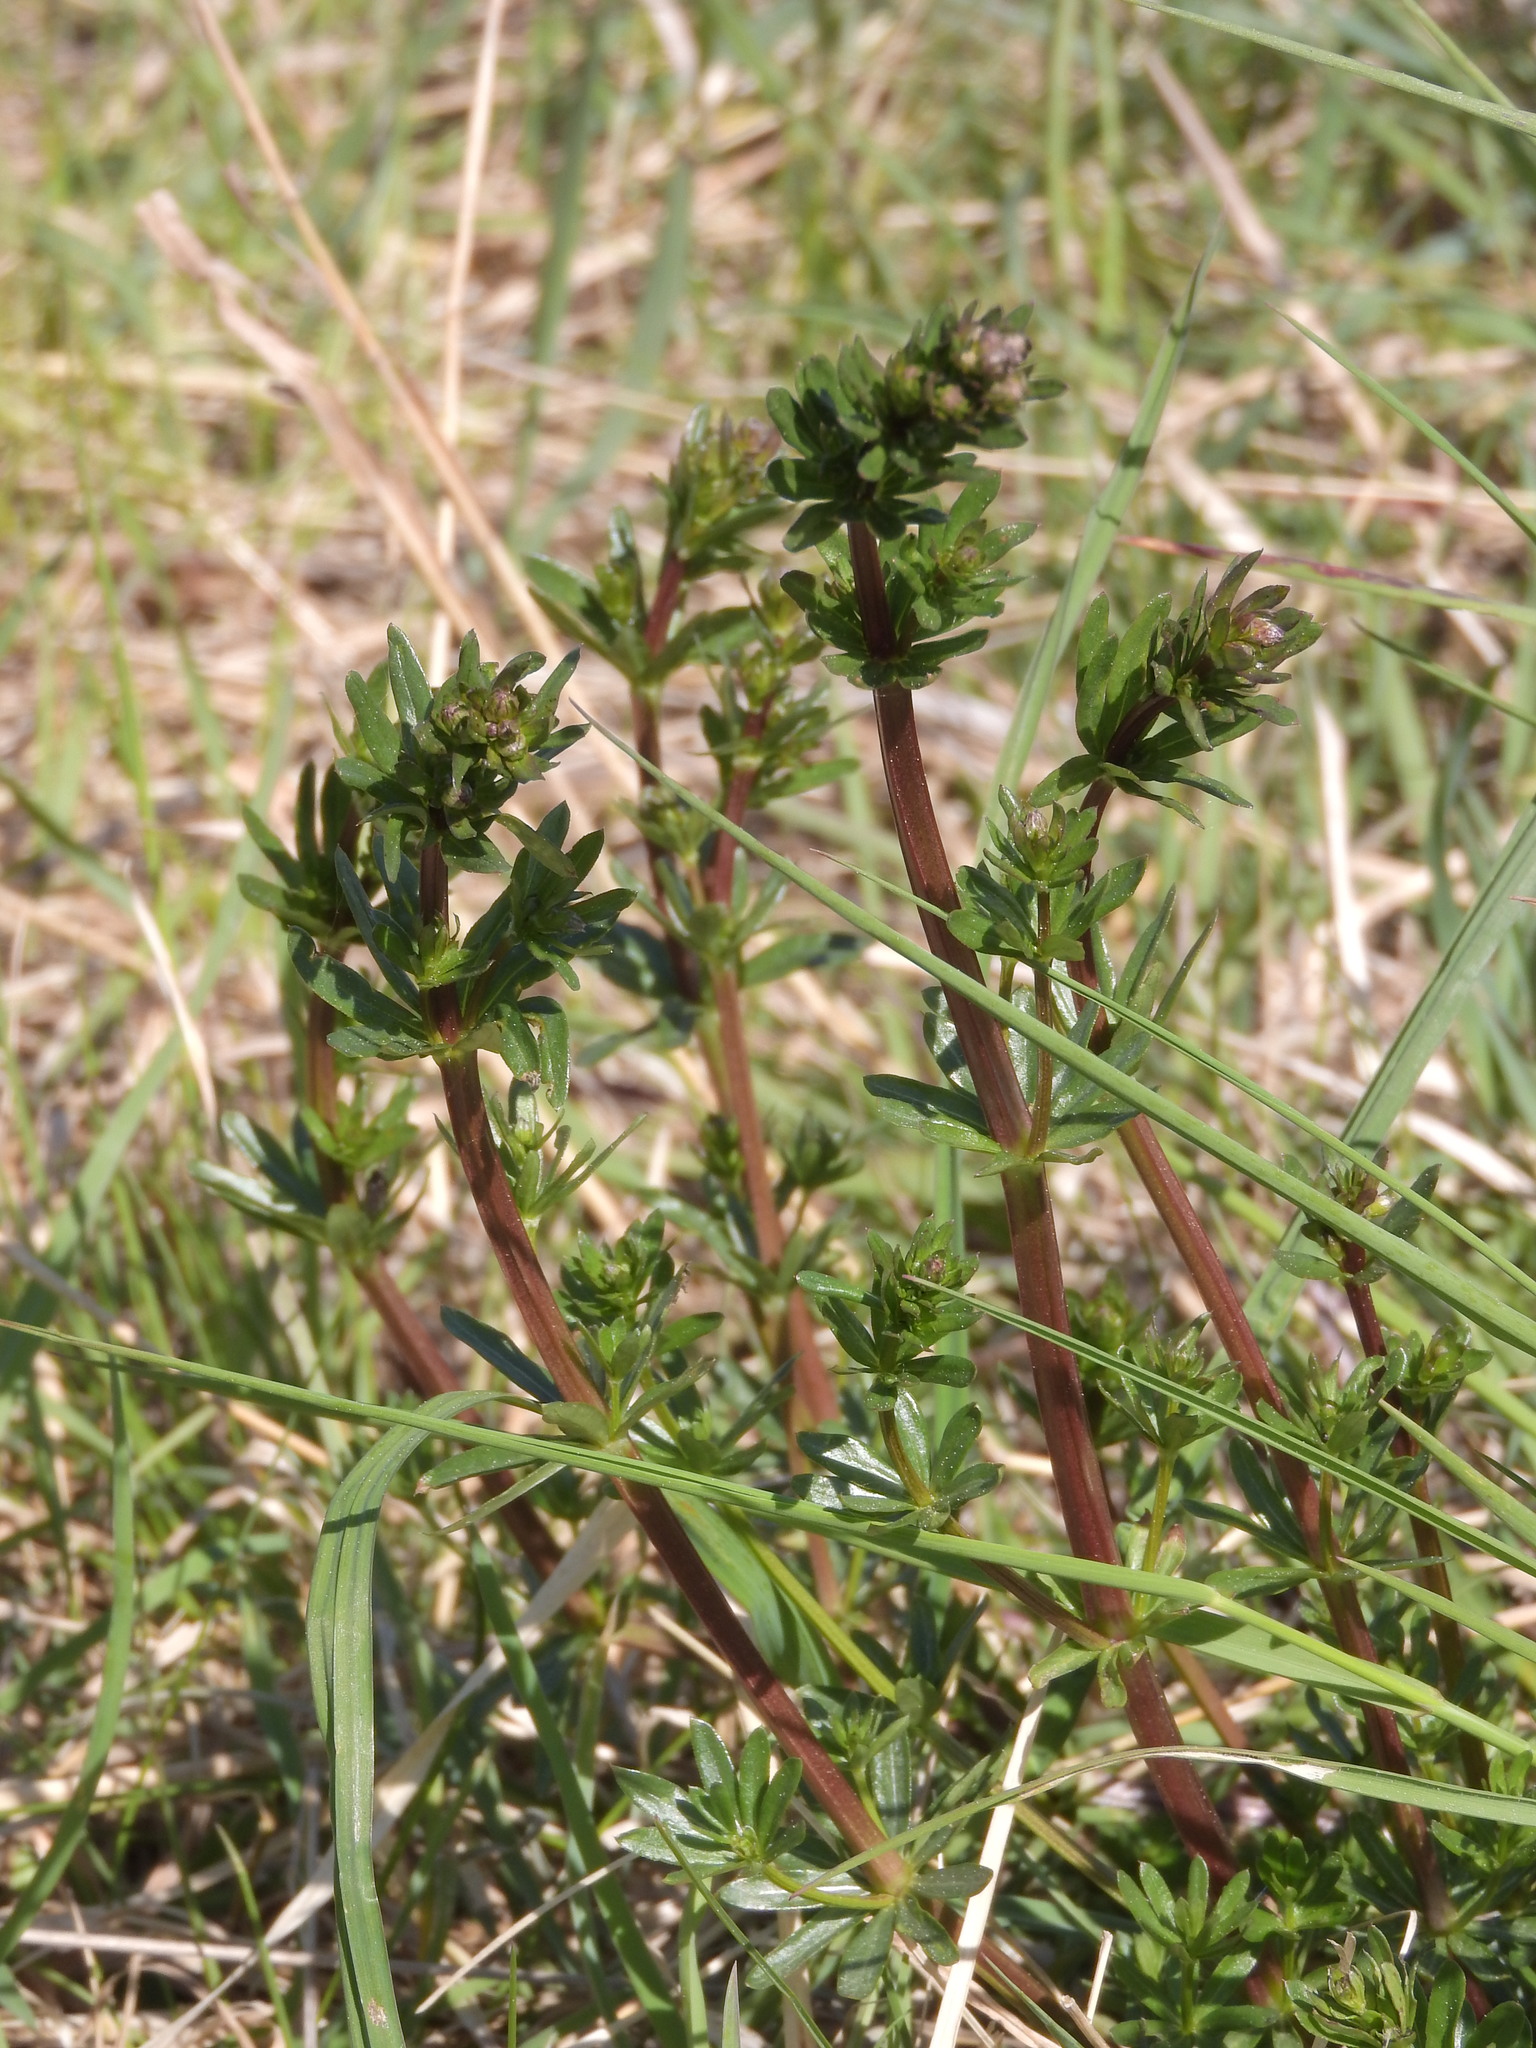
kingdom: Plantae
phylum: Tracheophyta
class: Magnoliopsida
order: Gentianales
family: Rubiaceae
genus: Galium
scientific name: Galium album
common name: White bedstraw
